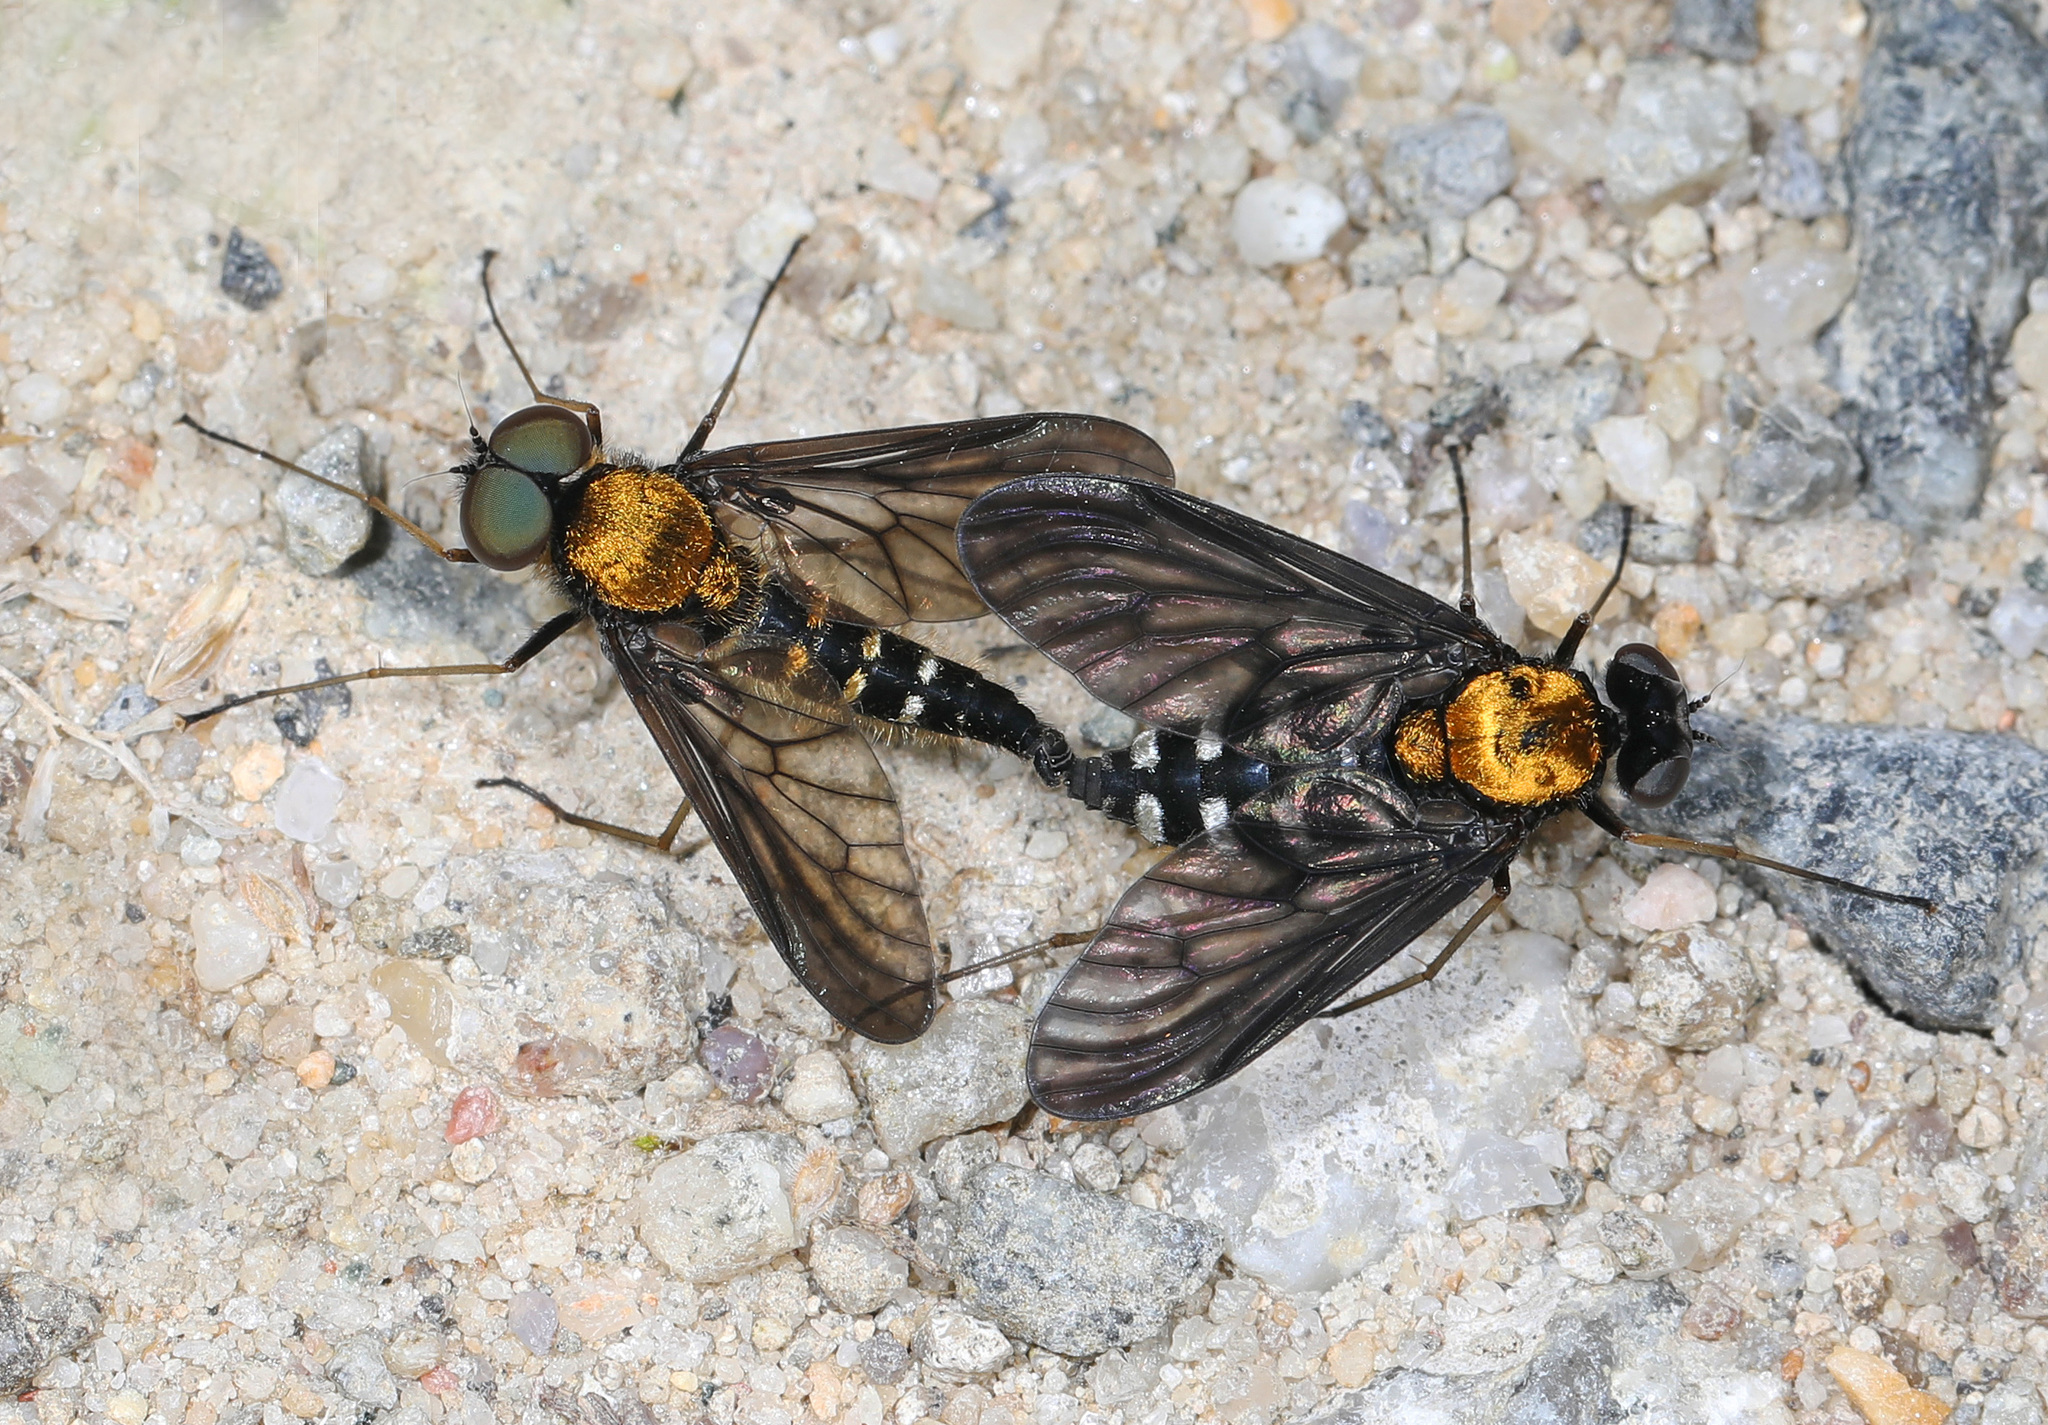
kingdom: Animalia
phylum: Arthropoda
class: Insecta
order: Diptera
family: Rhagionidae
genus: Chrysopilus
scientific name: Chrysopilus thoracicus
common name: Golden-backed snipe fly
